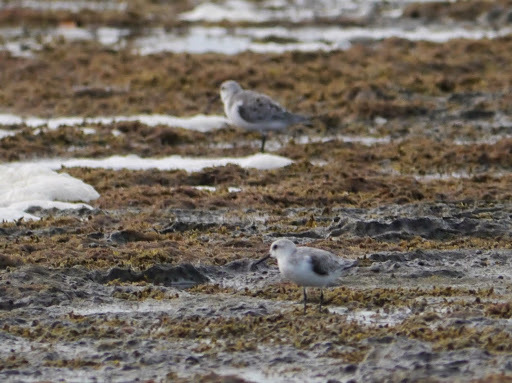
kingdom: Animalia
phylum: Chordata
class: Aves
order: Charadriiformes
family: Scolopacidae
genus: Calidris
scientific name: Calidris alba
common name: Sanderling
